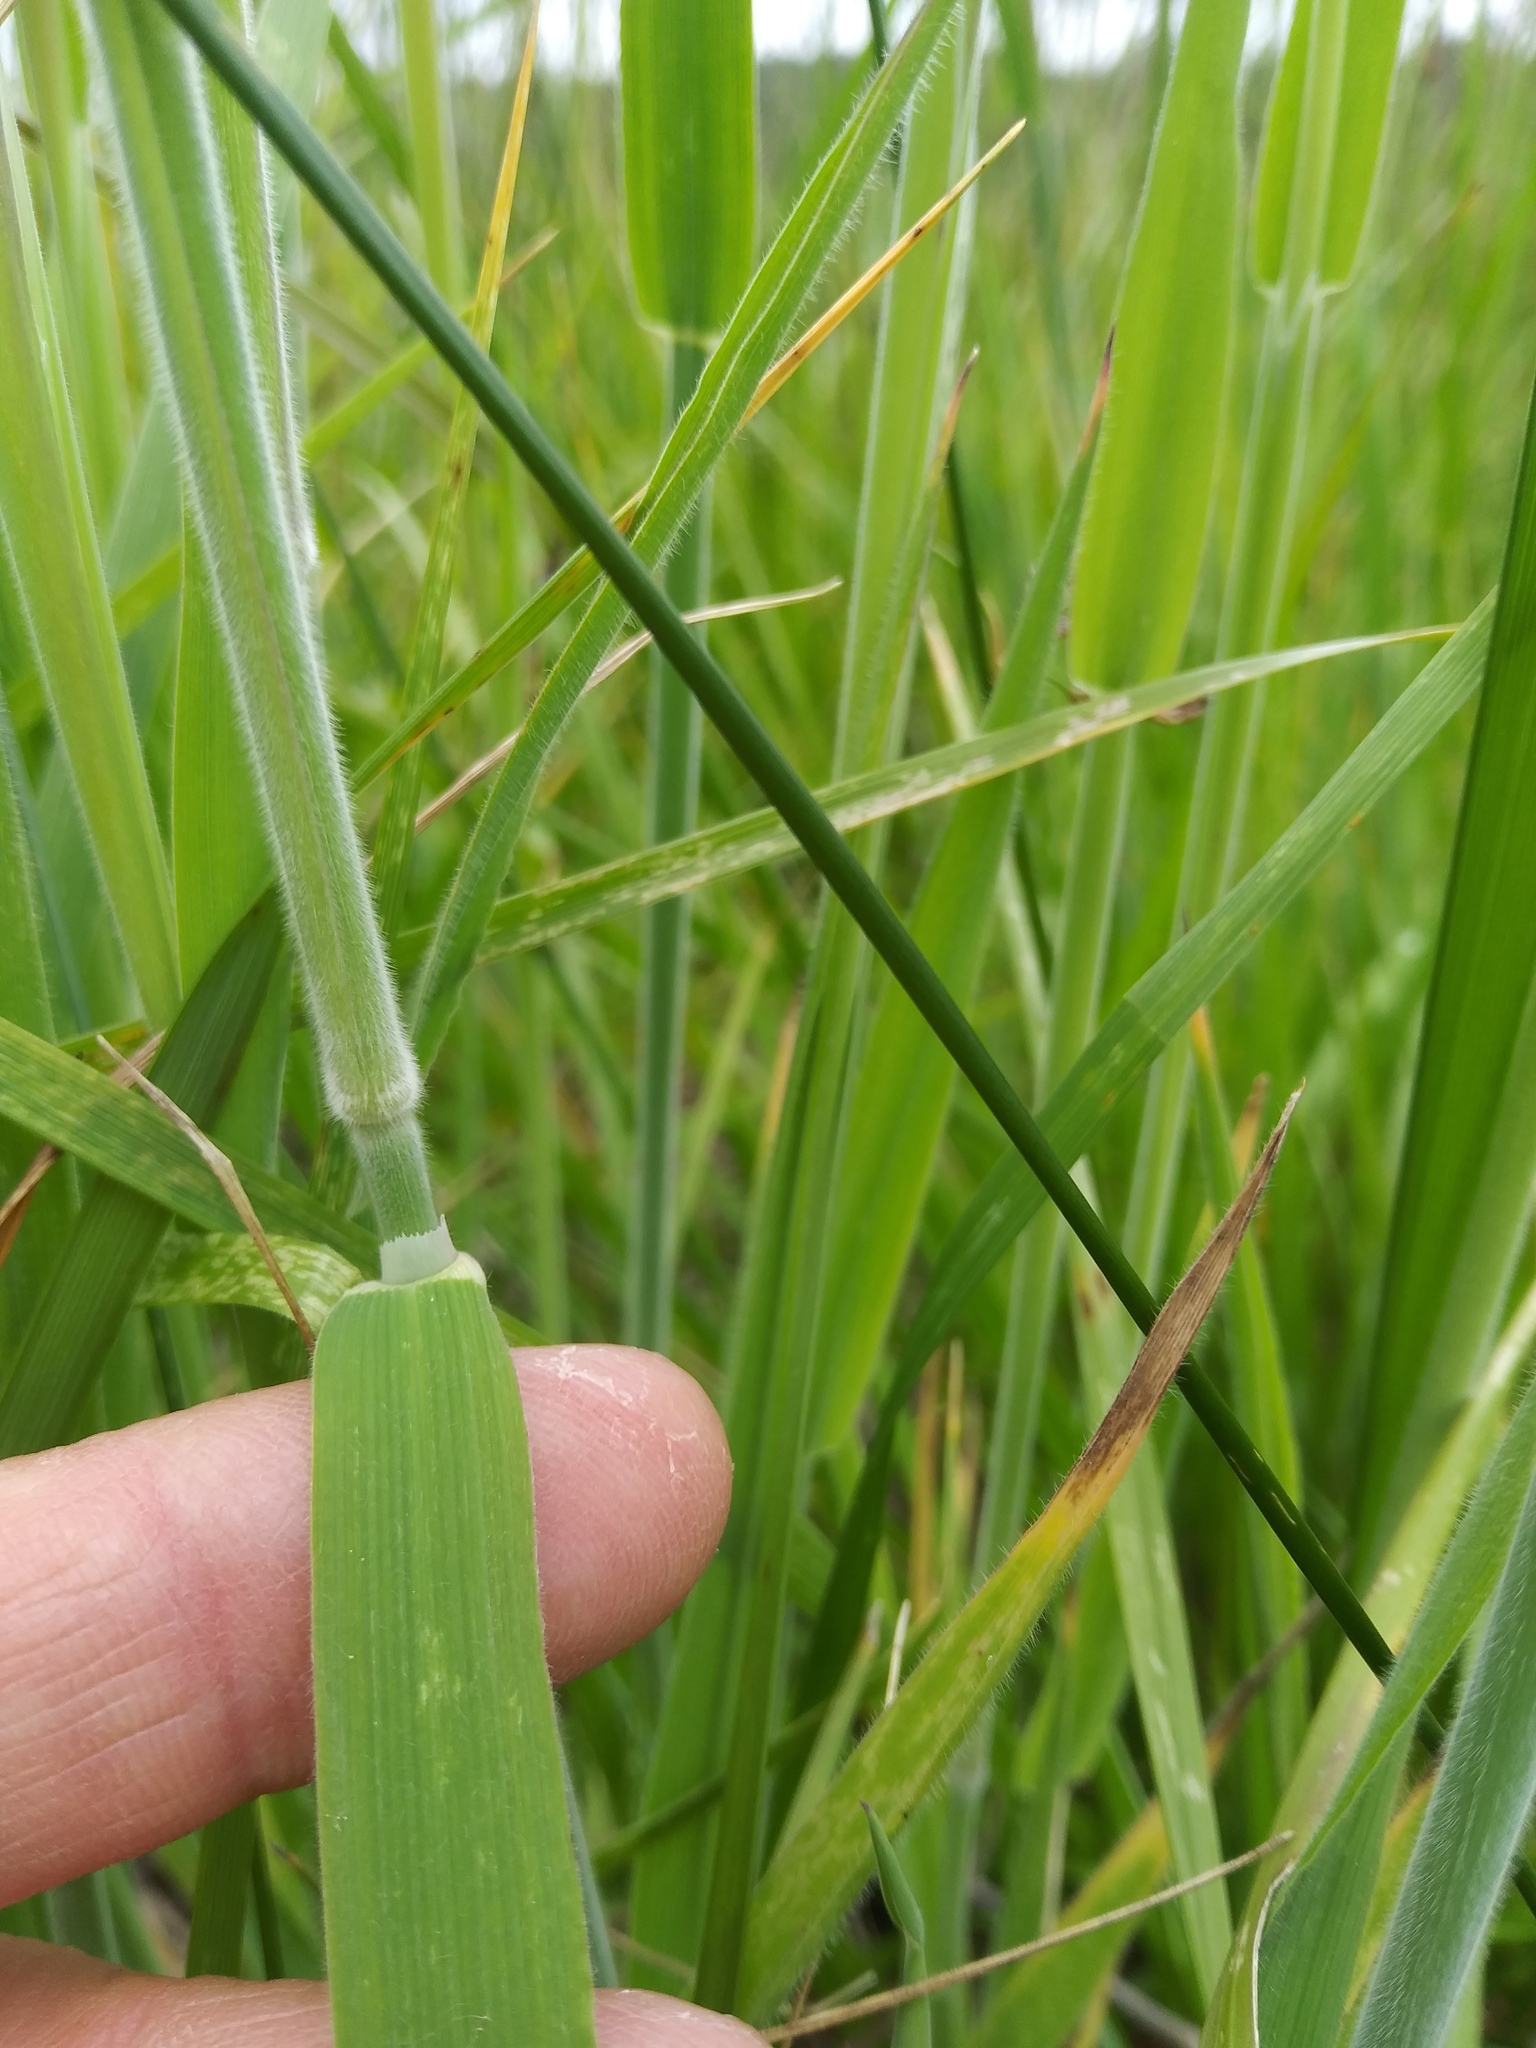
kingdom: Plantae
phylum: Tracheophyta
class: Liliopsida
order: Poales
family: Poaceae
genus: Holcus
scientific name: Holcus lanatus
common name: Yorkshire-fog
